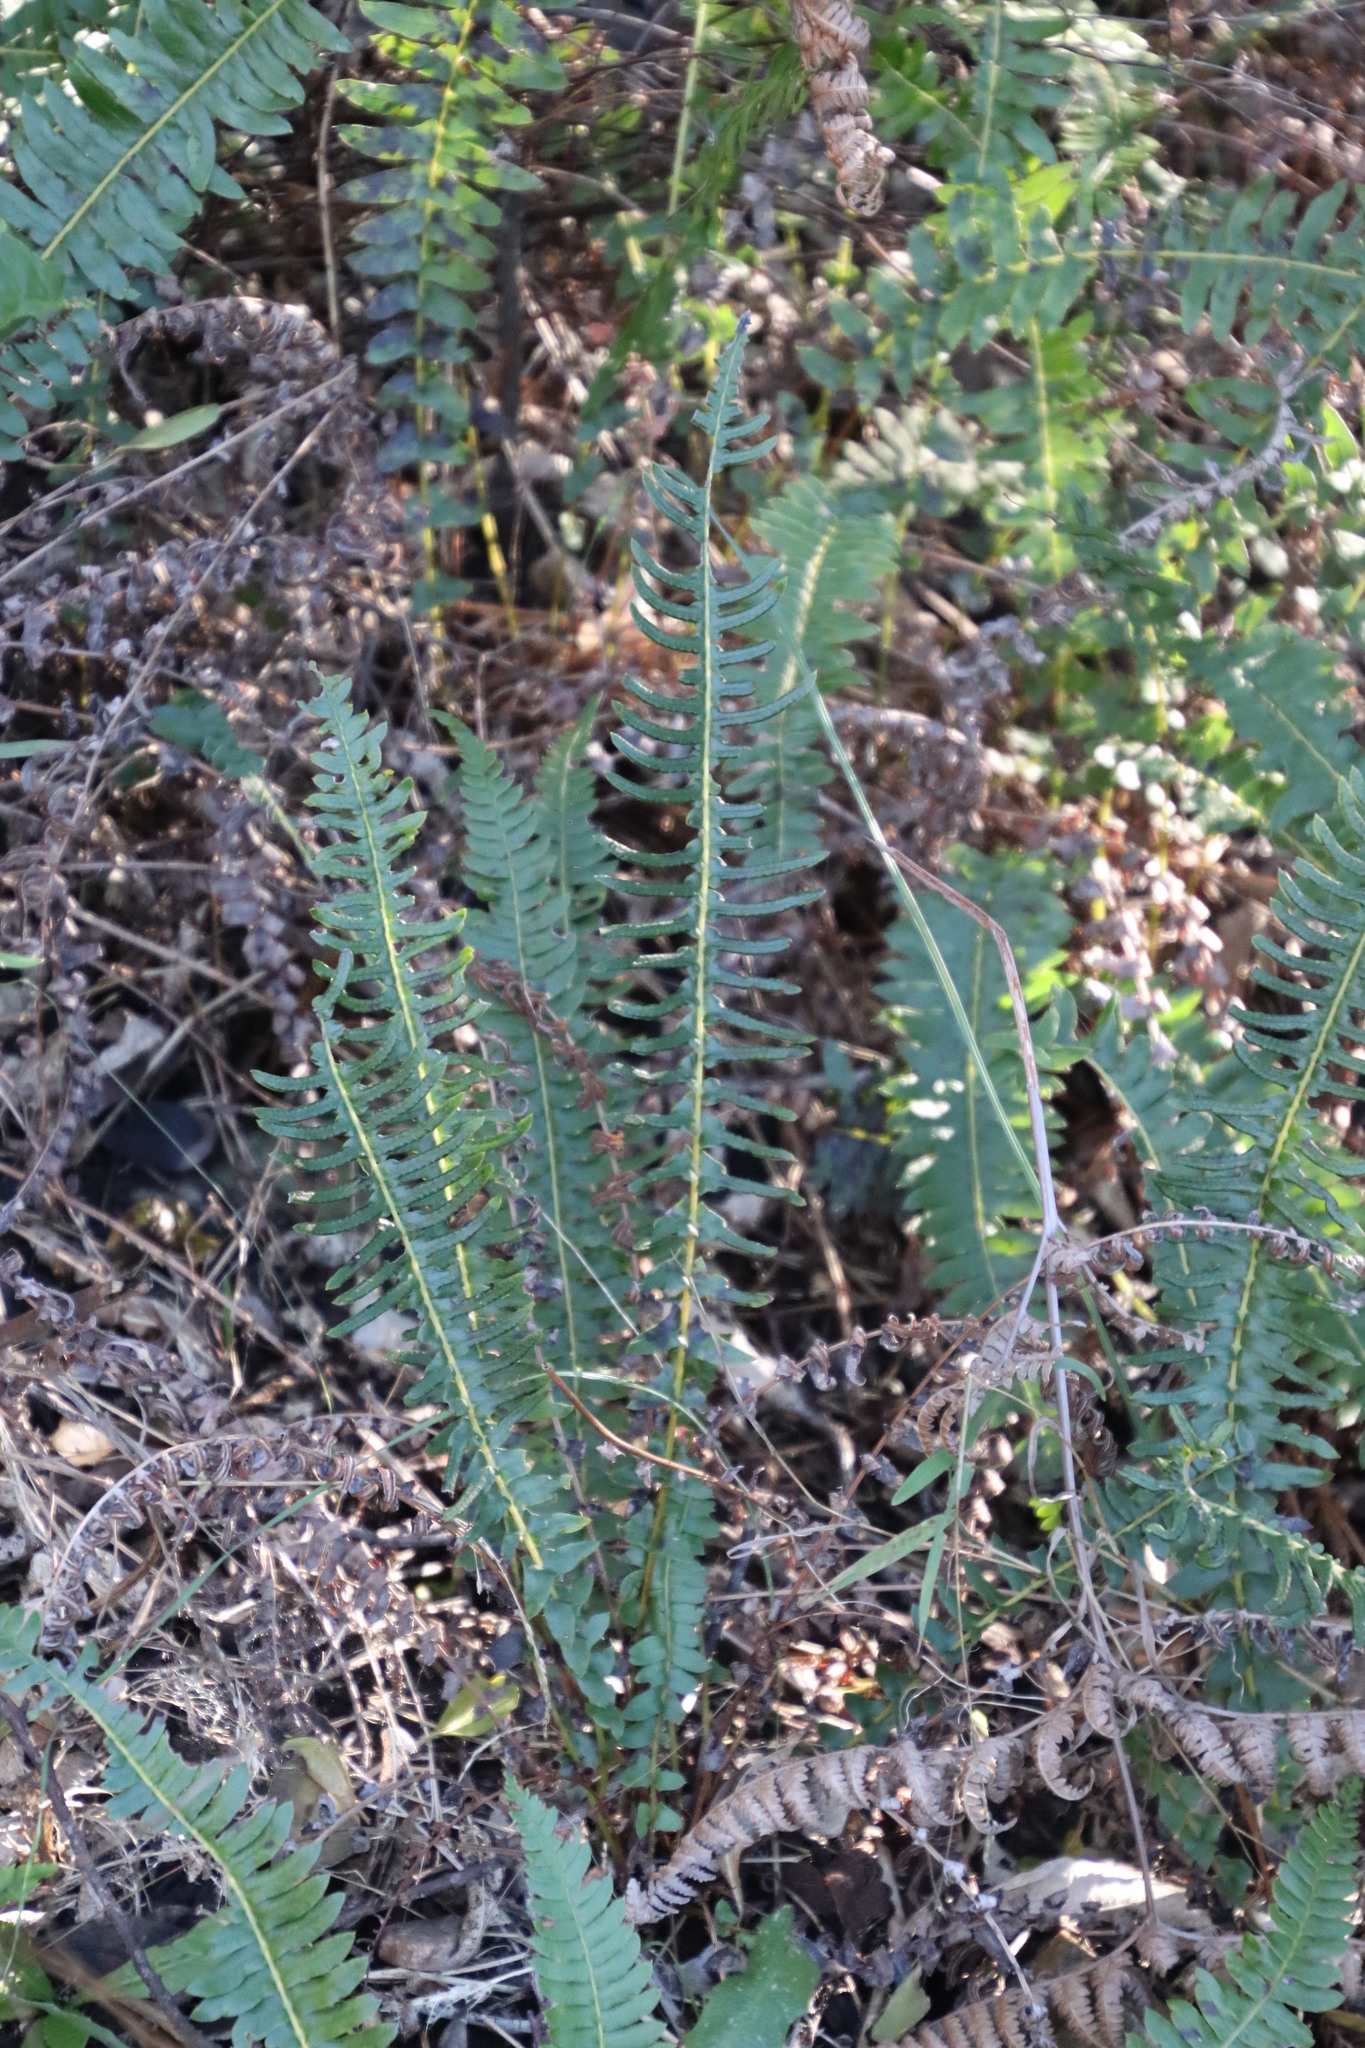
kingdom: Plantae
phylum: Tracheophyta
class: Polypodiopsida
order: Polypodiales
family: Blechnaceae
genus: Blechnum
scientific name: Blechnum australe
